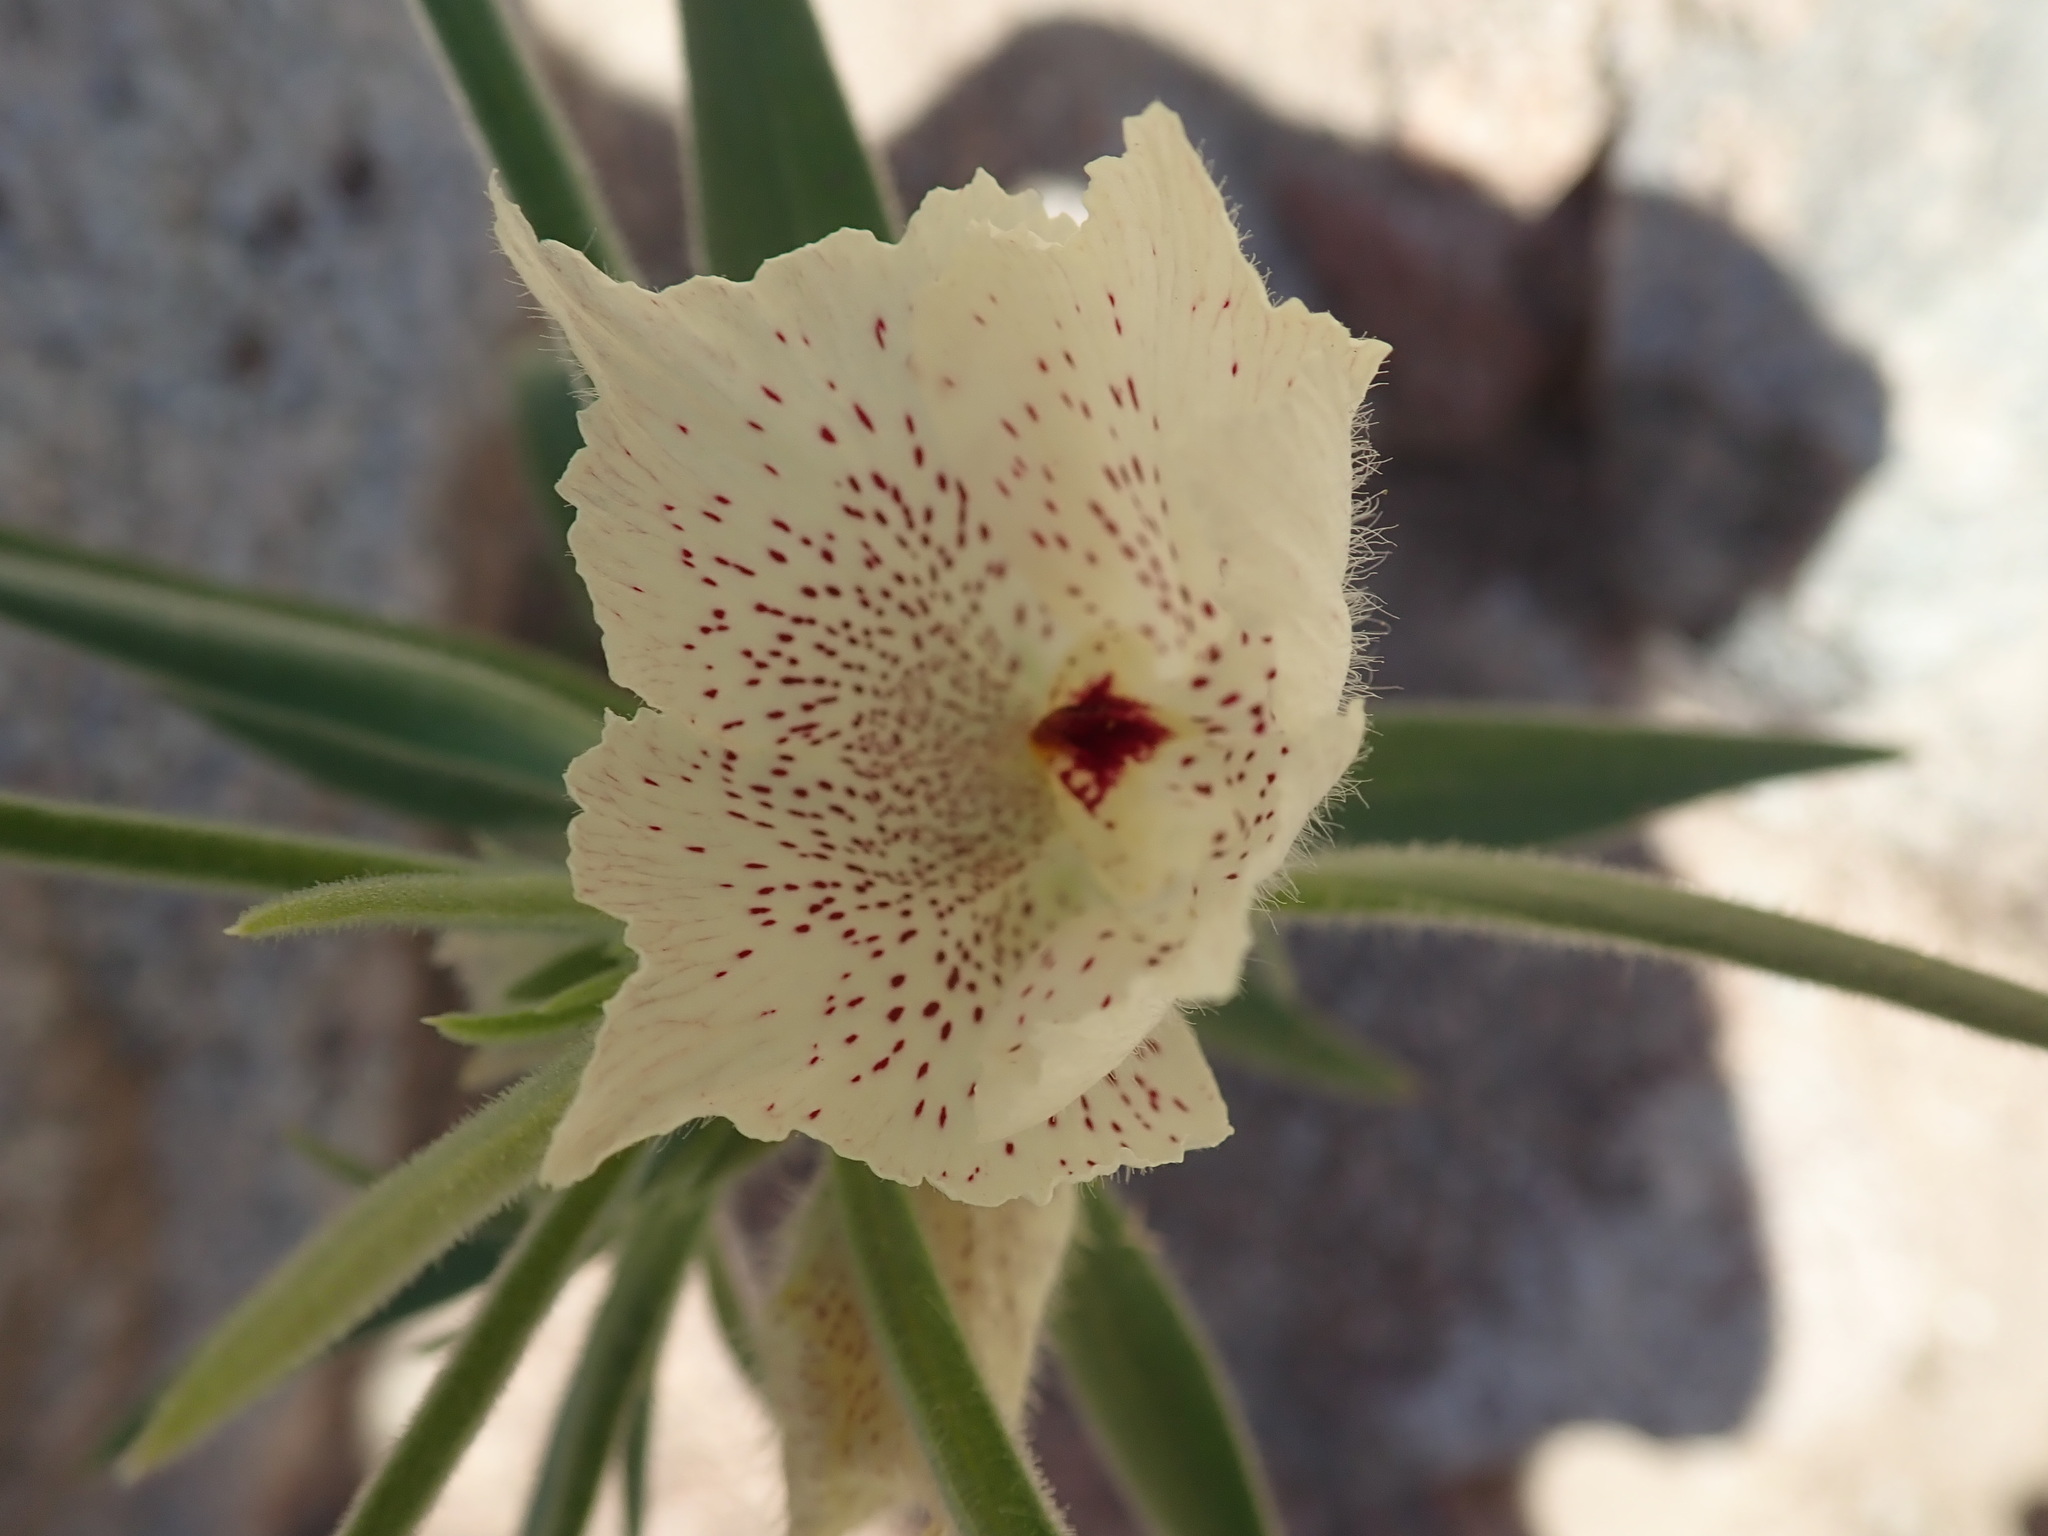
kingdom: Plantae
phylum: Tracheophyta
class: Magnoliopsida
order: Lamiales
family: Plantaginaceae
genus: Mohavea
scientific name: Mohavea confertiflora
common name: Ghost flower
